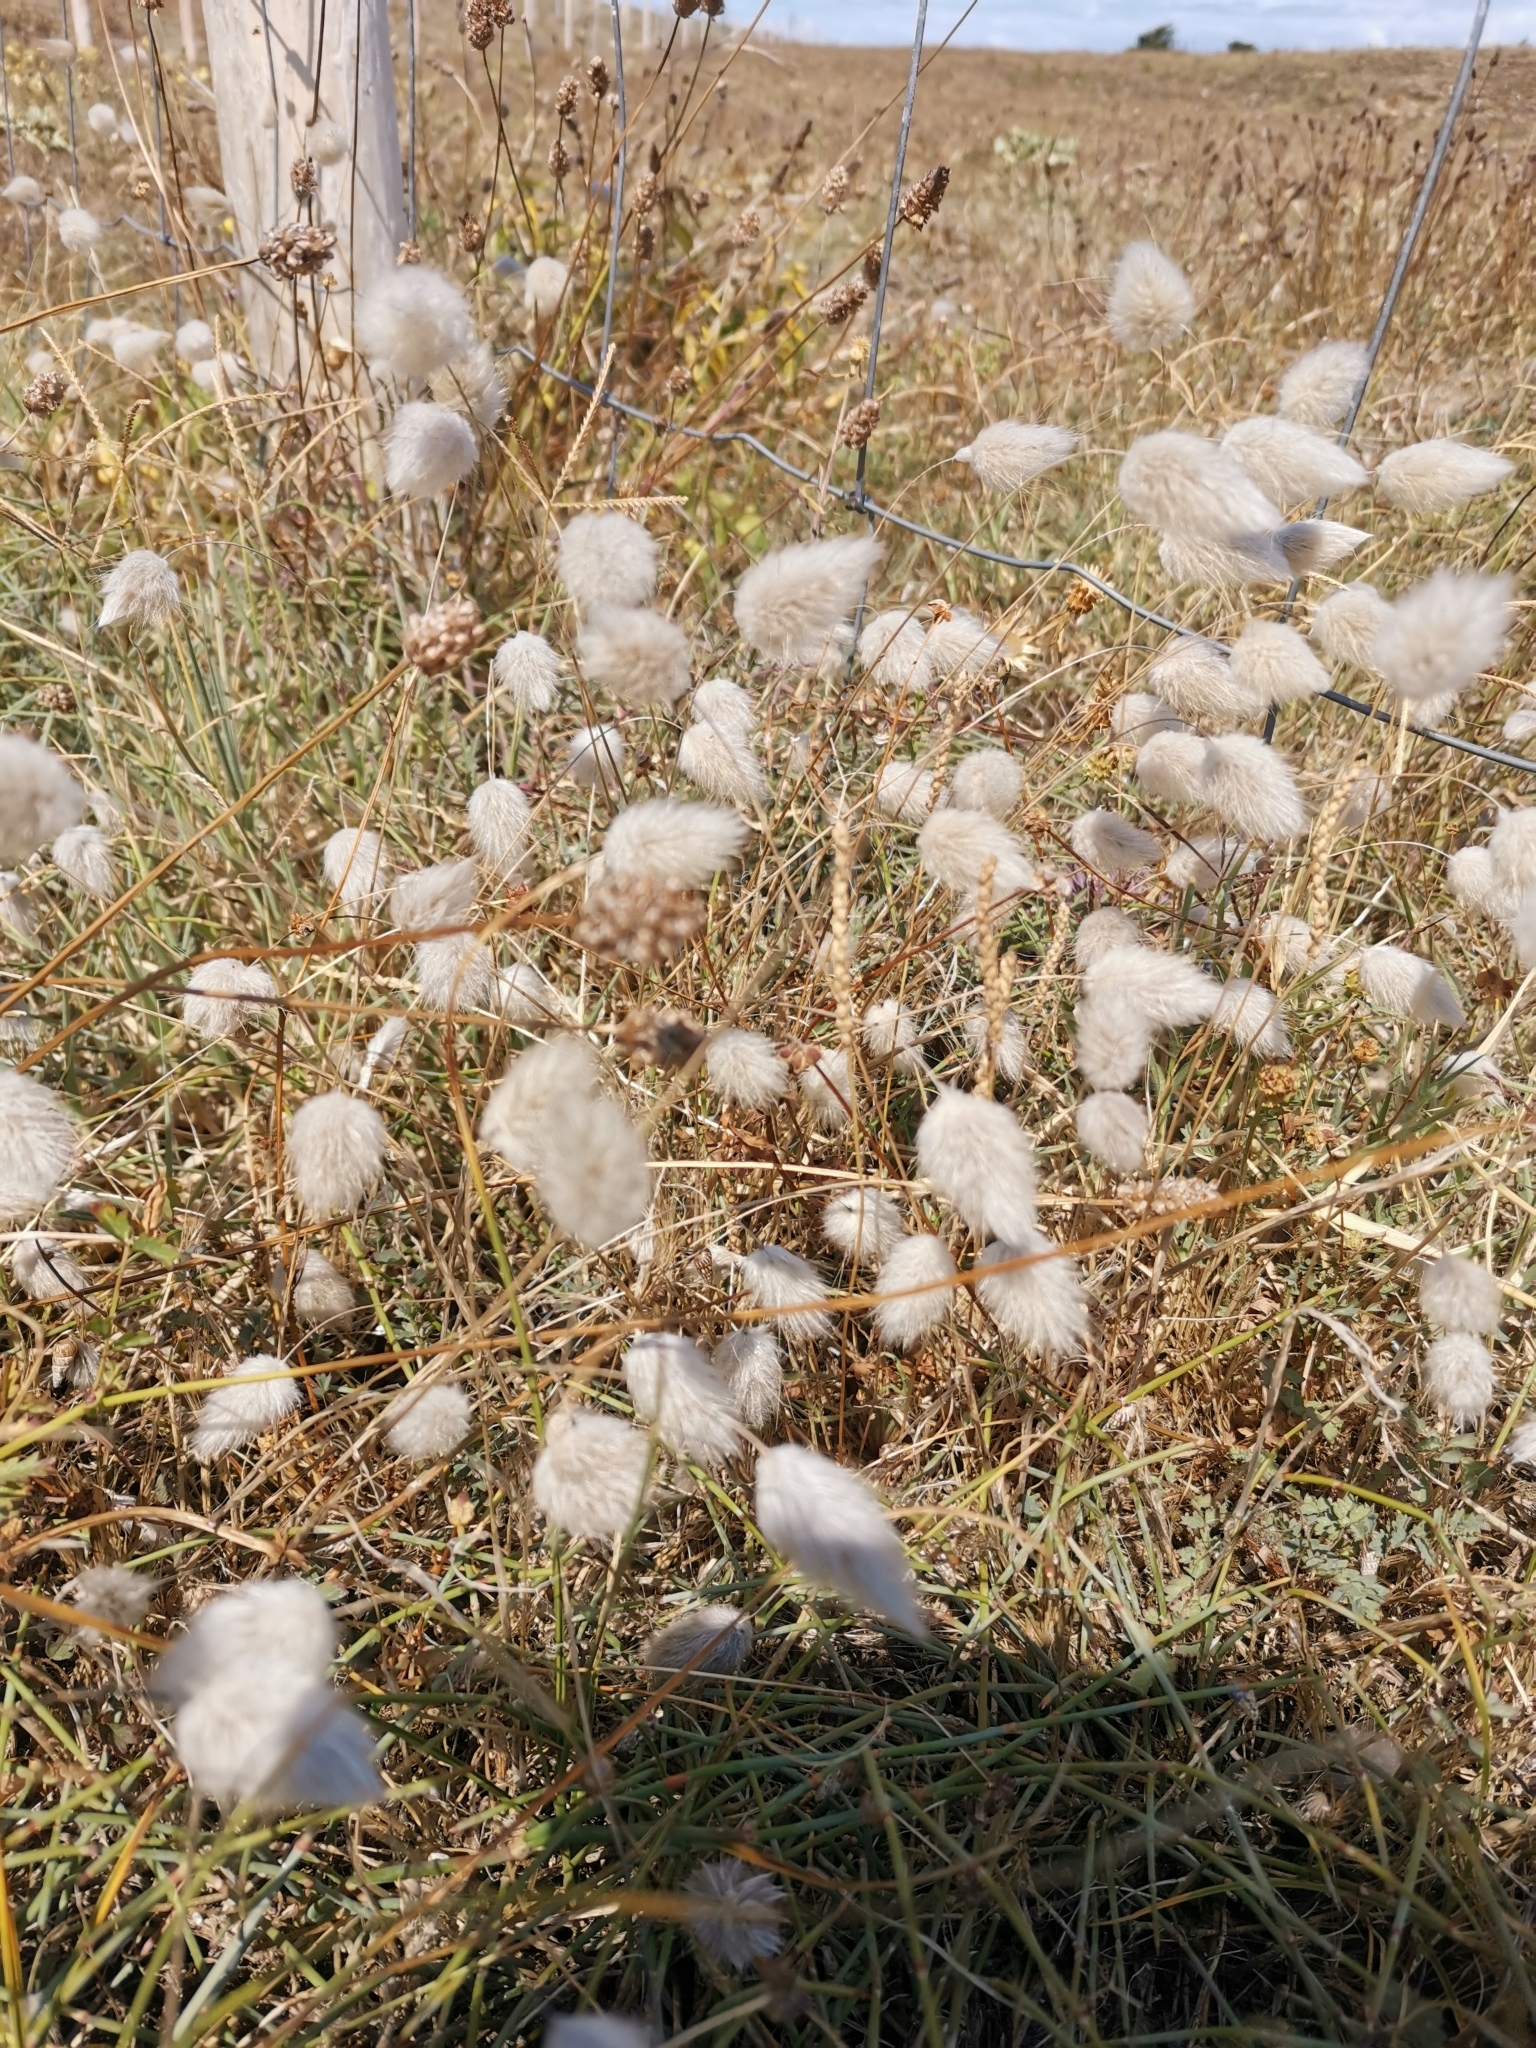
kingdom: Plantae
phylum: Tracheophyta
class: Liliopsida
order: Poales
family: Poaceae
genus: Lagurus
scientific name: Lagurus ovatus
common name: Hare's-tail
